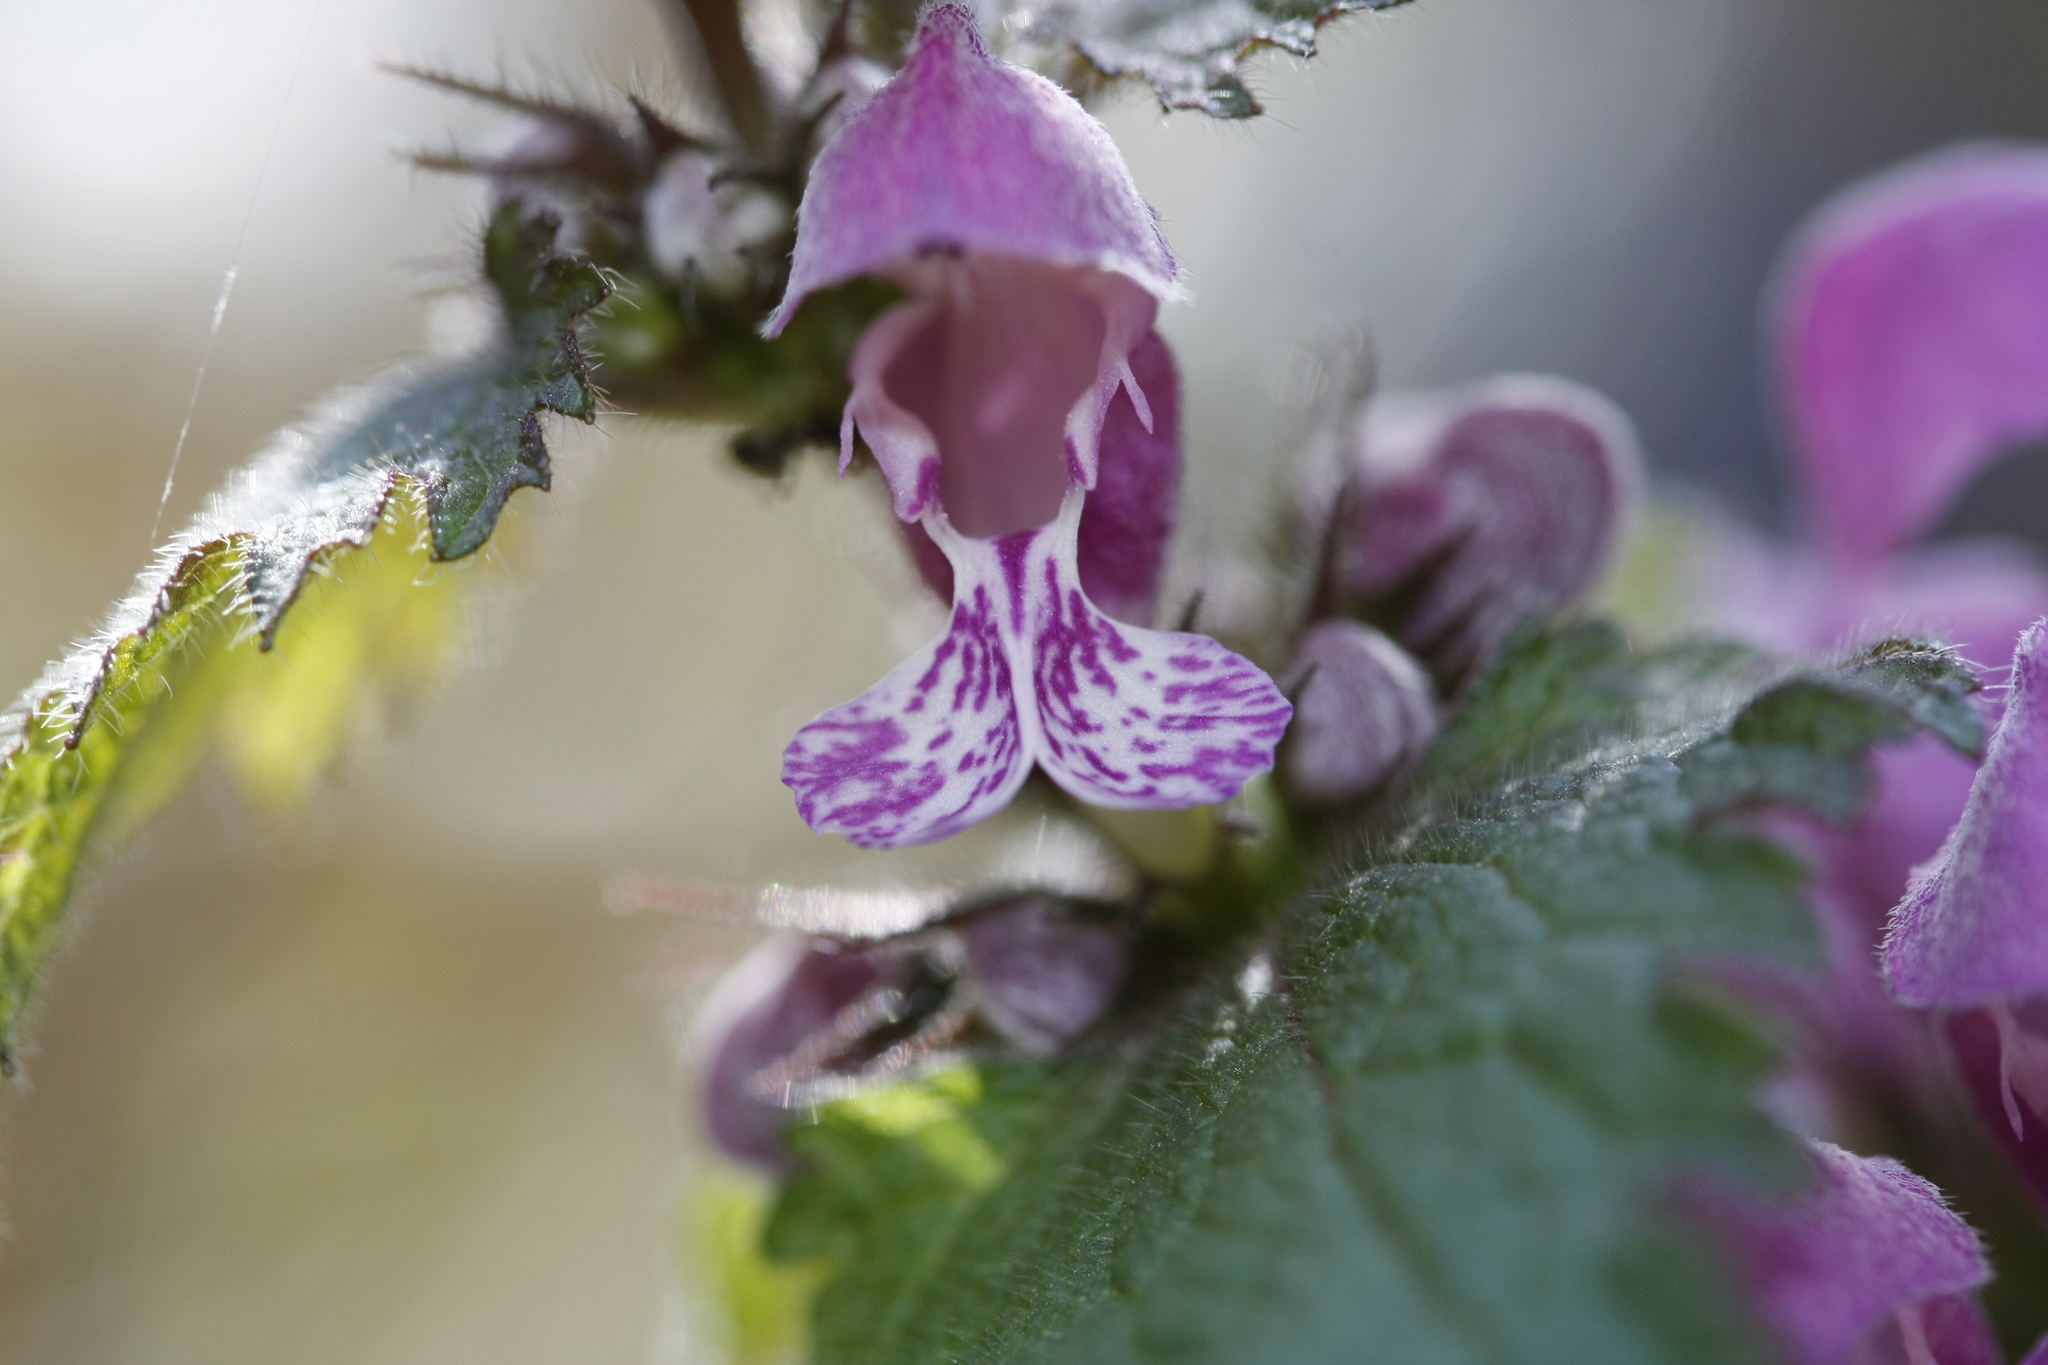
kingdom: Plantae
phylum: Tracheophyta
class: Magnoliopsida
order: Lamiales
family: Lamiaceae
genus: Lamium
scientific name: Lamium maculatum
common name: Spotted dead-nettle
